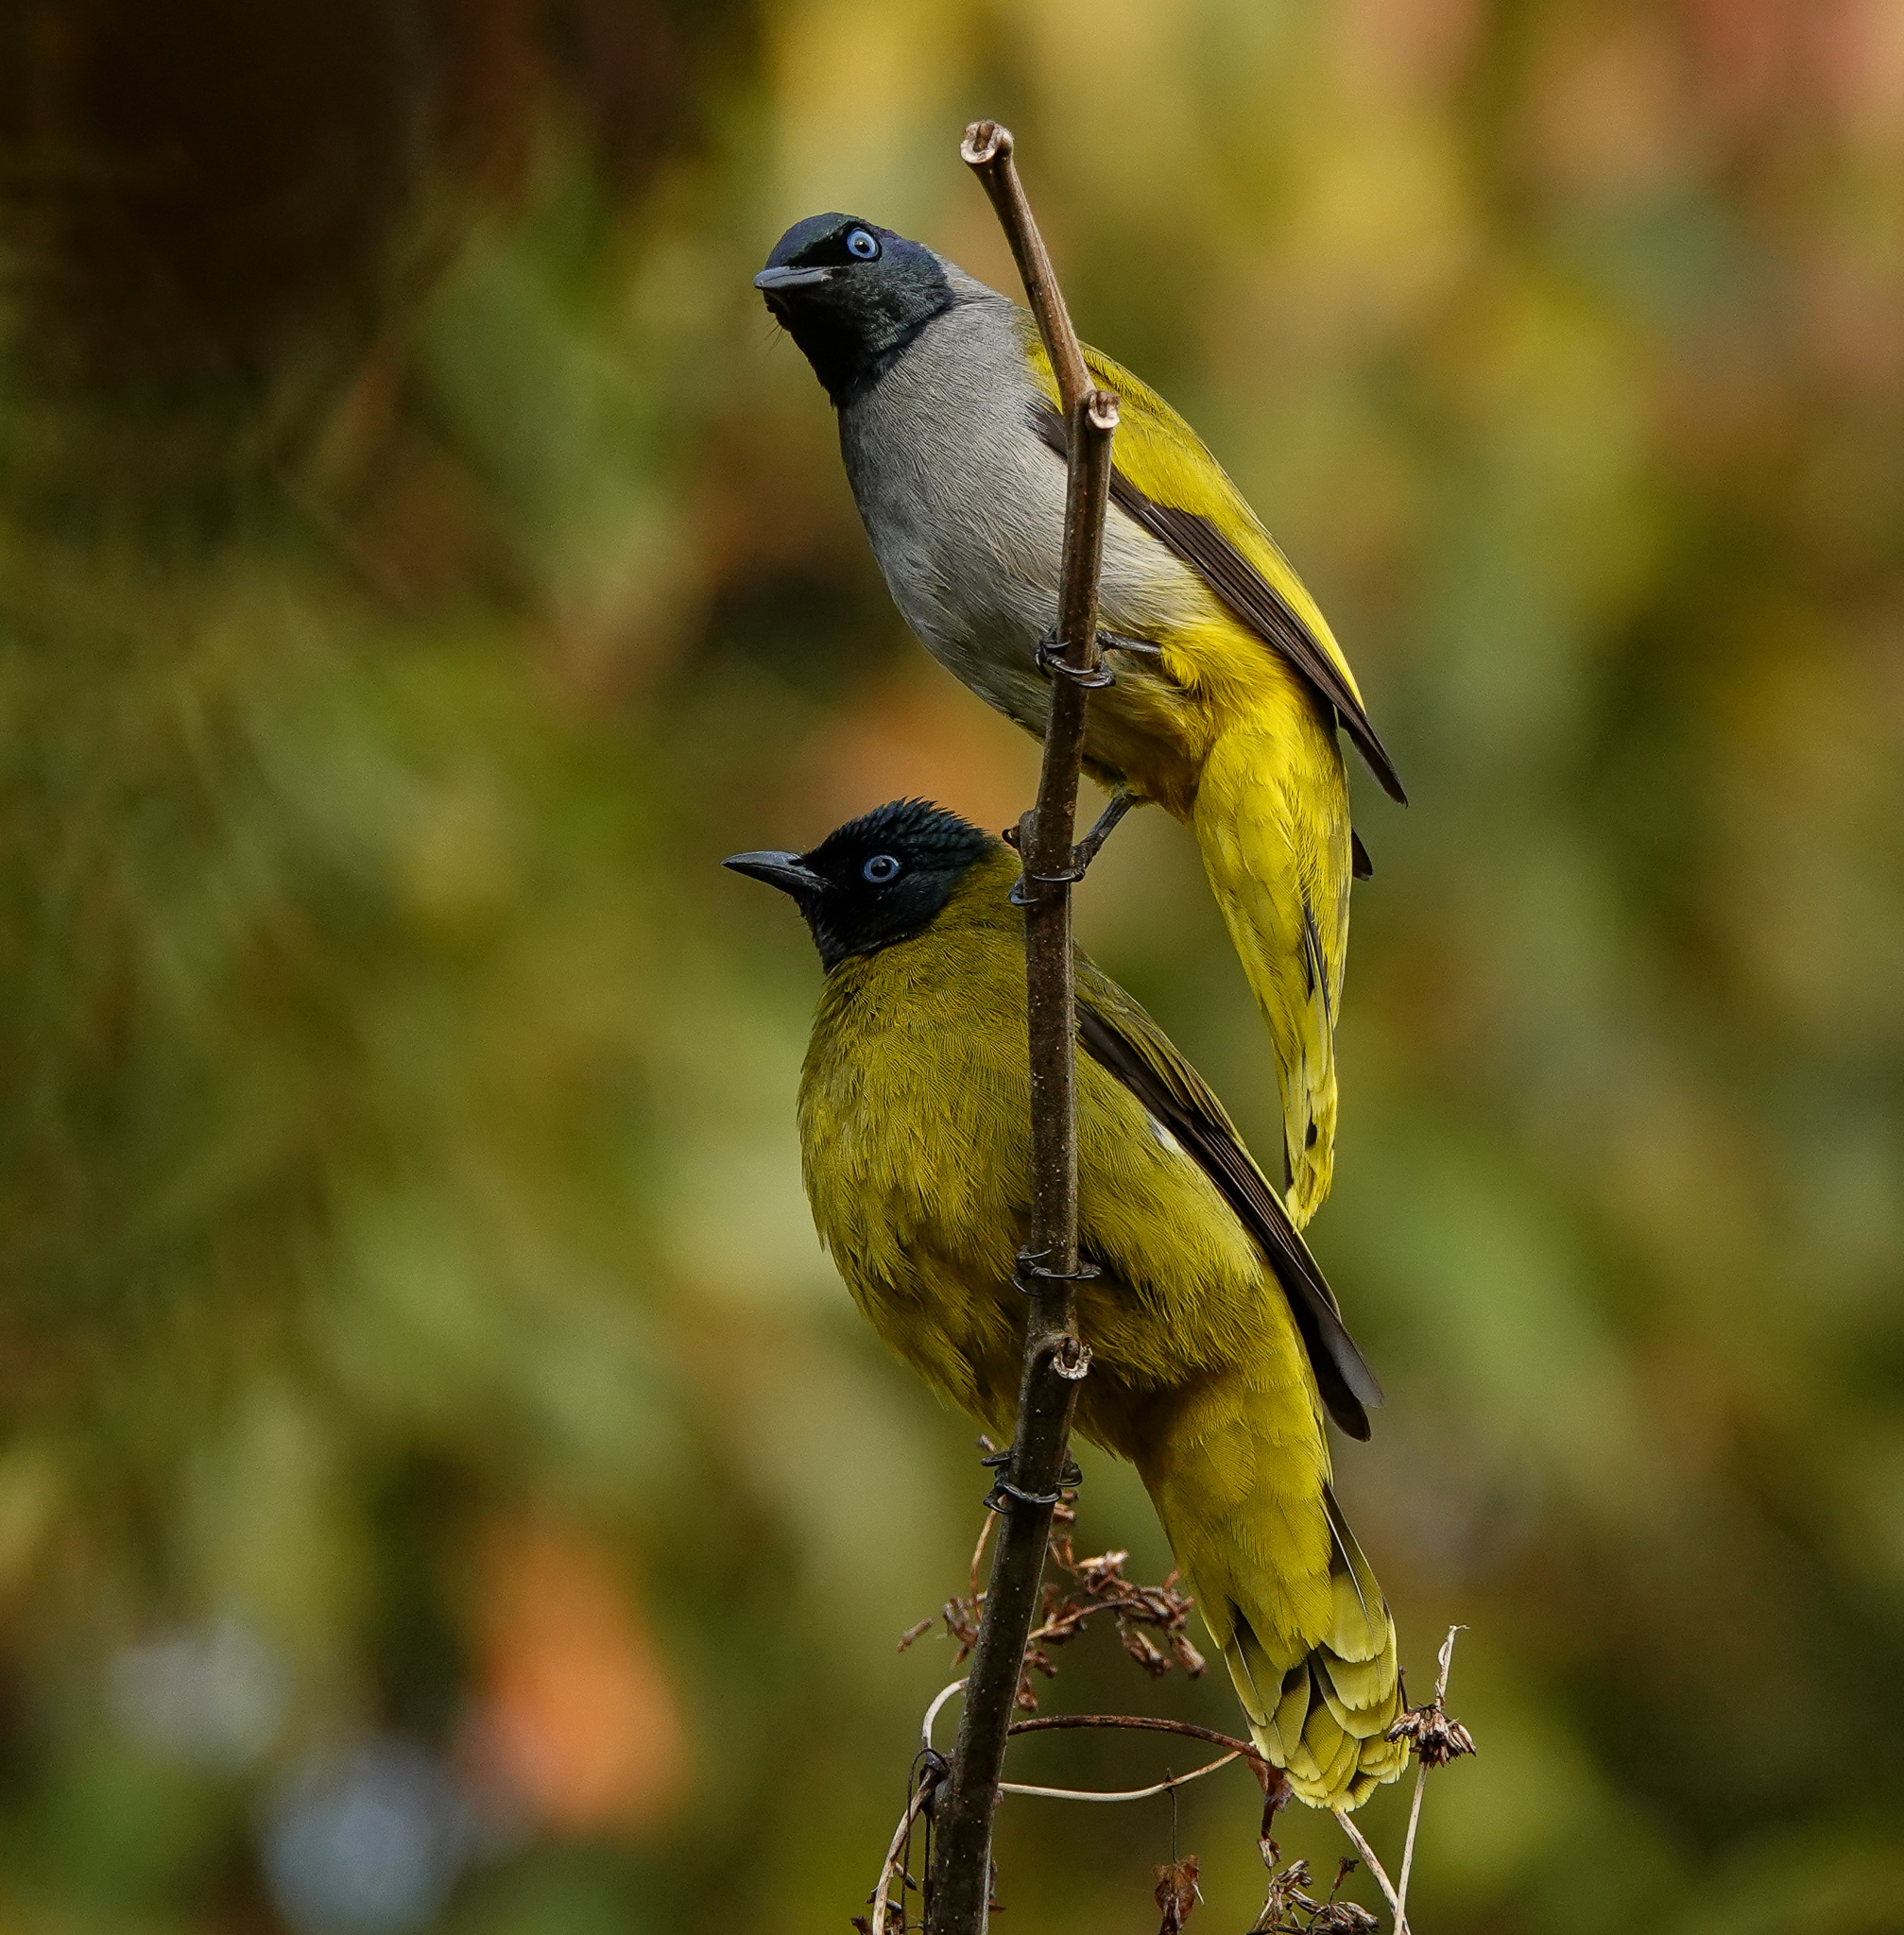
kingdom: Animalia
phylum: Chordata
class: Aves
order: Passeriformes
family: Pycnonotidae
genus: Microtarsus
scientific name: Microtarsus
